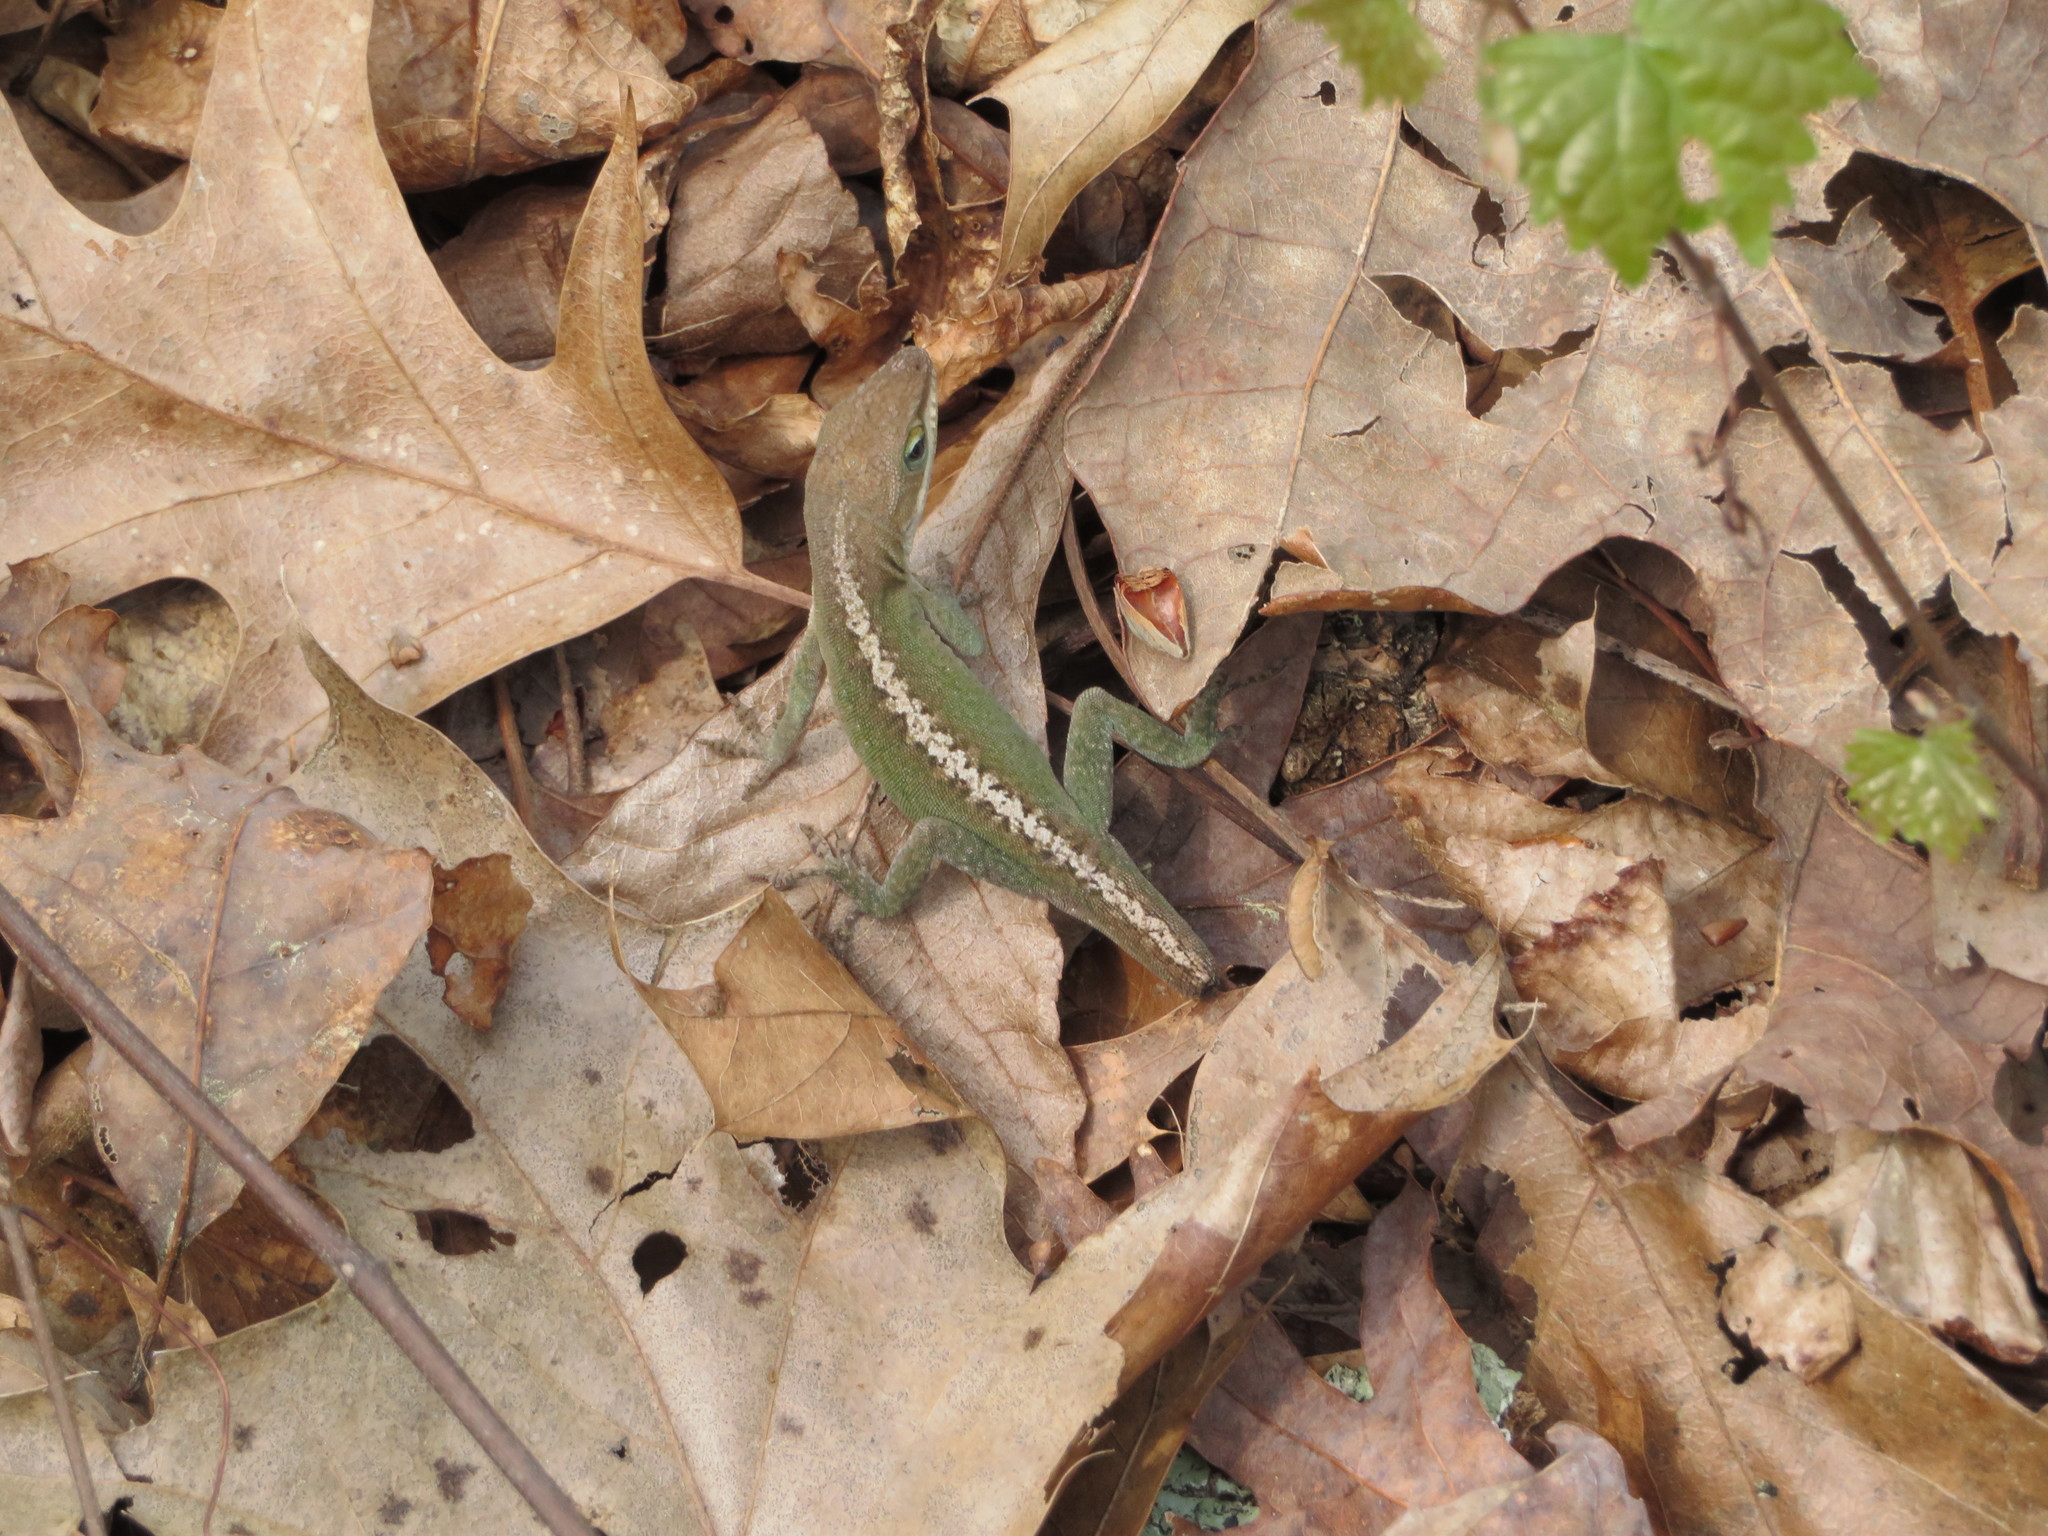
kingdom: Animalia
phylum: Chordata
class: Squamata
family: Dactyloidae
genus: Anolis
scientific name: Anolis carolinensis
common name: Green anole
